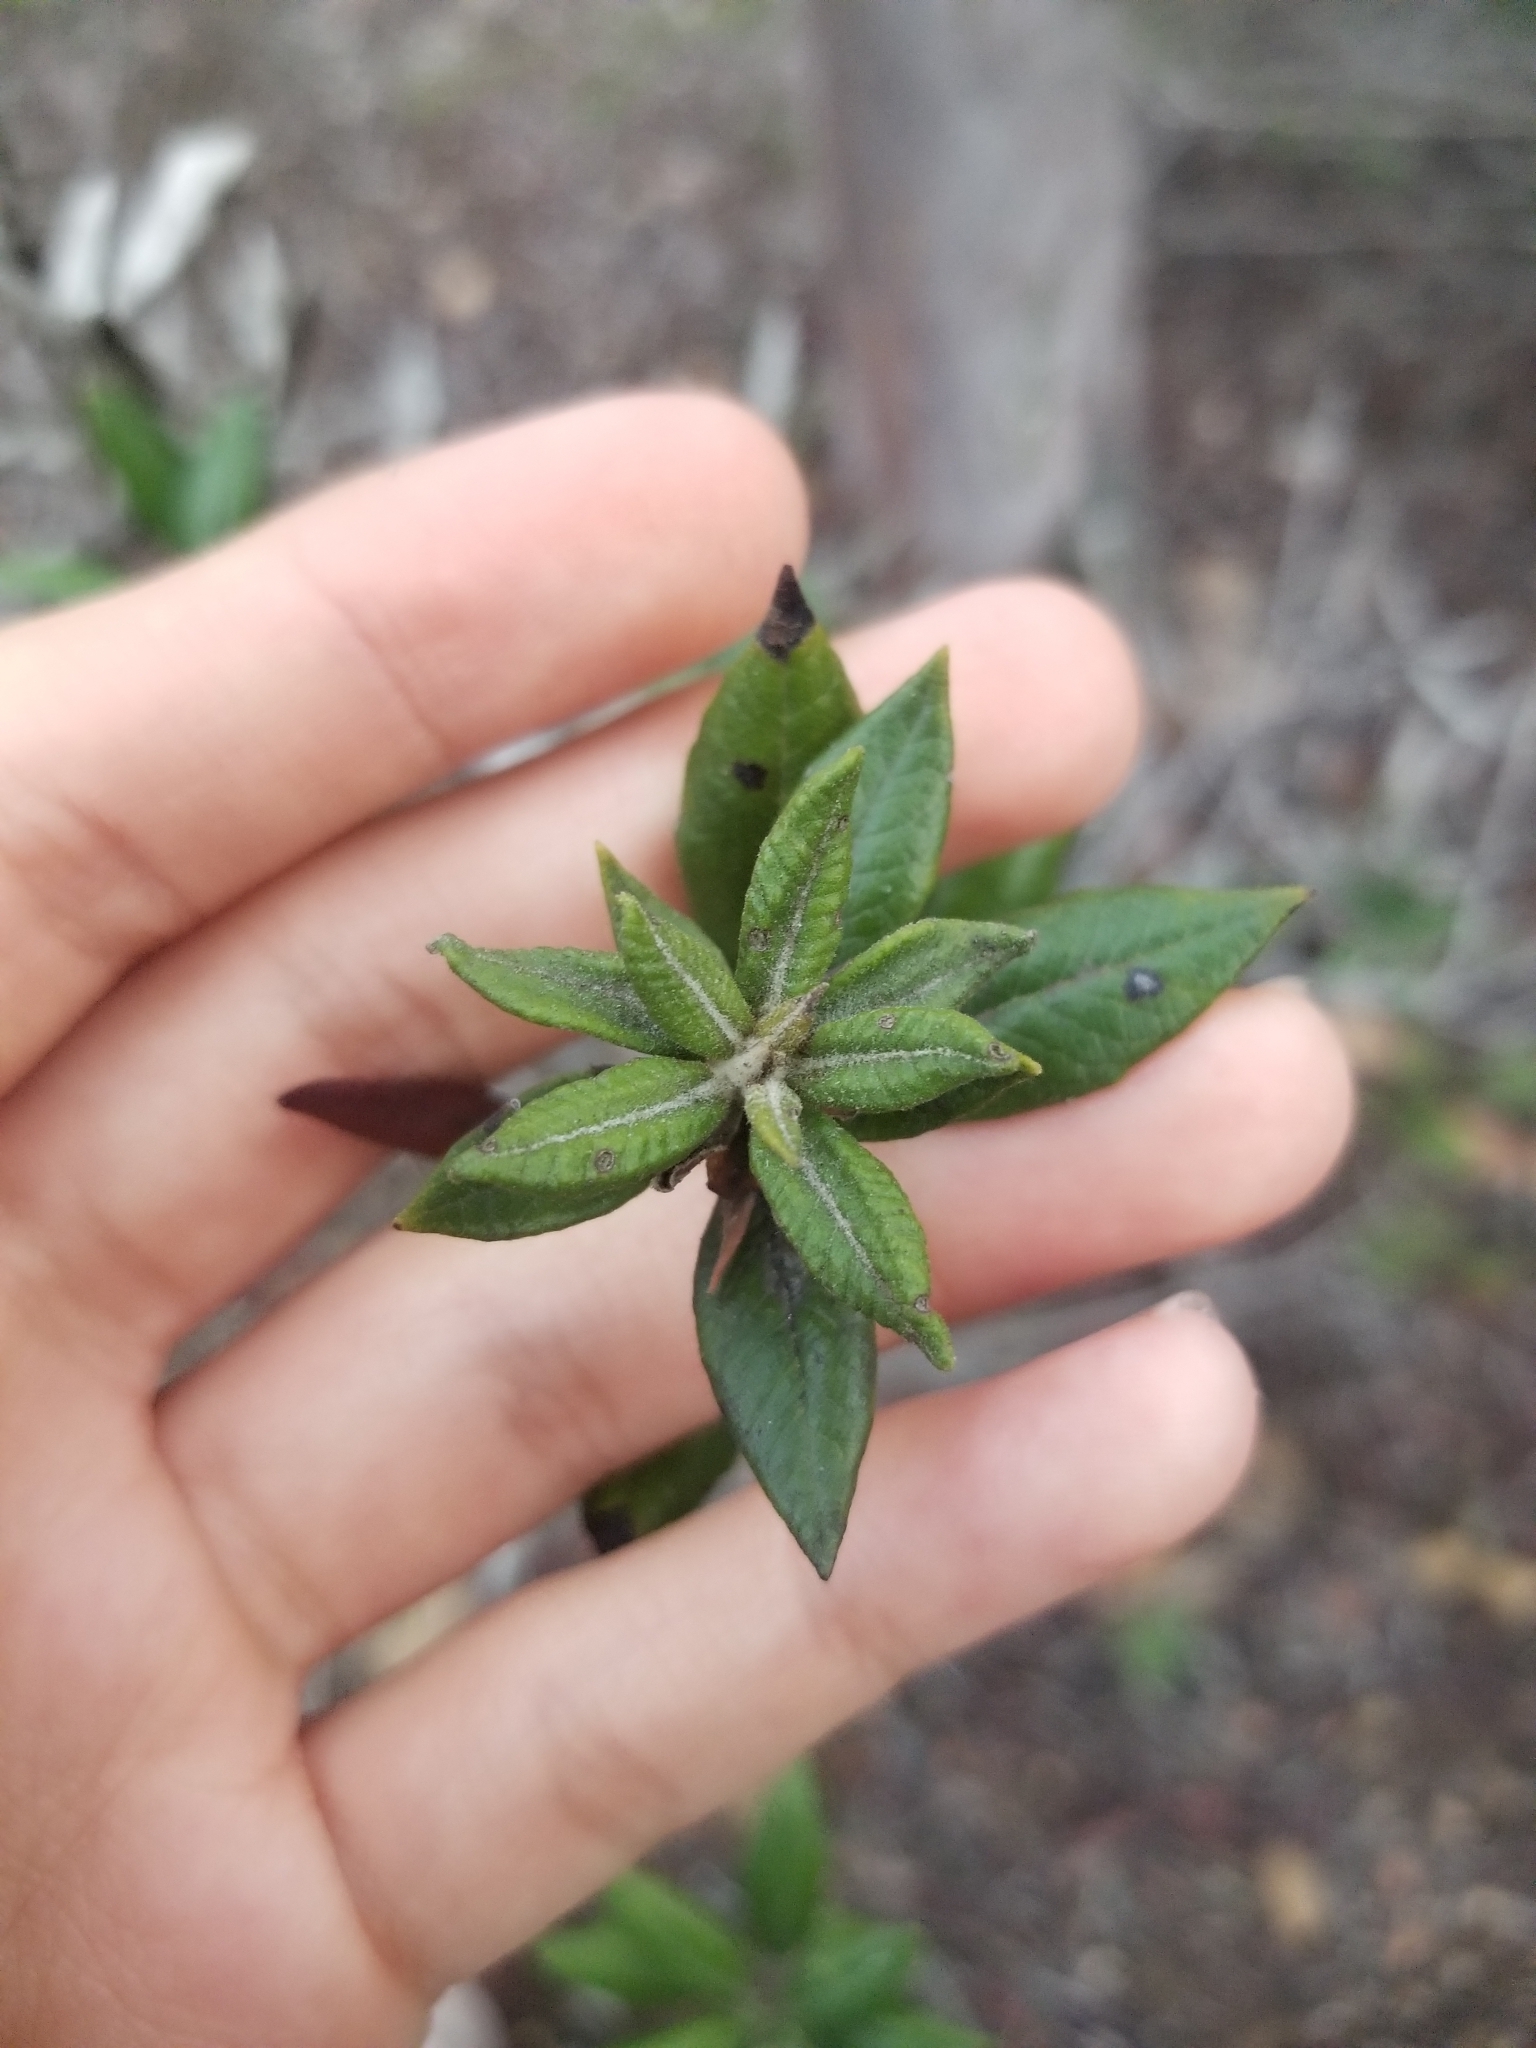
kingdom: Plantae
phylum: Tracheophyta
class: Magnoliopsida
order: Ericales
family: Ericaceae
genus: Arctostaphylos
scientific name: Arctostaphylos bicolor
